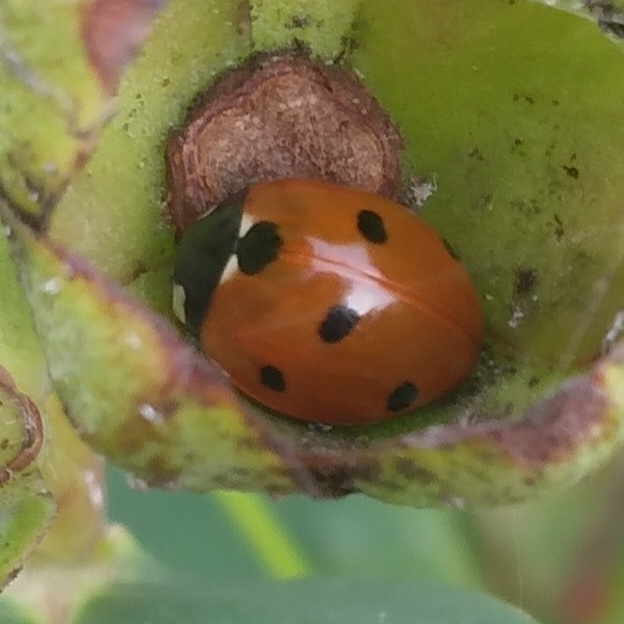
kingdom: Animalia
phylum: Arthropoda
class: Insecta
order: Coleoptera
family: Coccinellidae
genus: Coccinella
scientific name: Coccinella septempunctata
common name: Sevenspotted lady beetle
